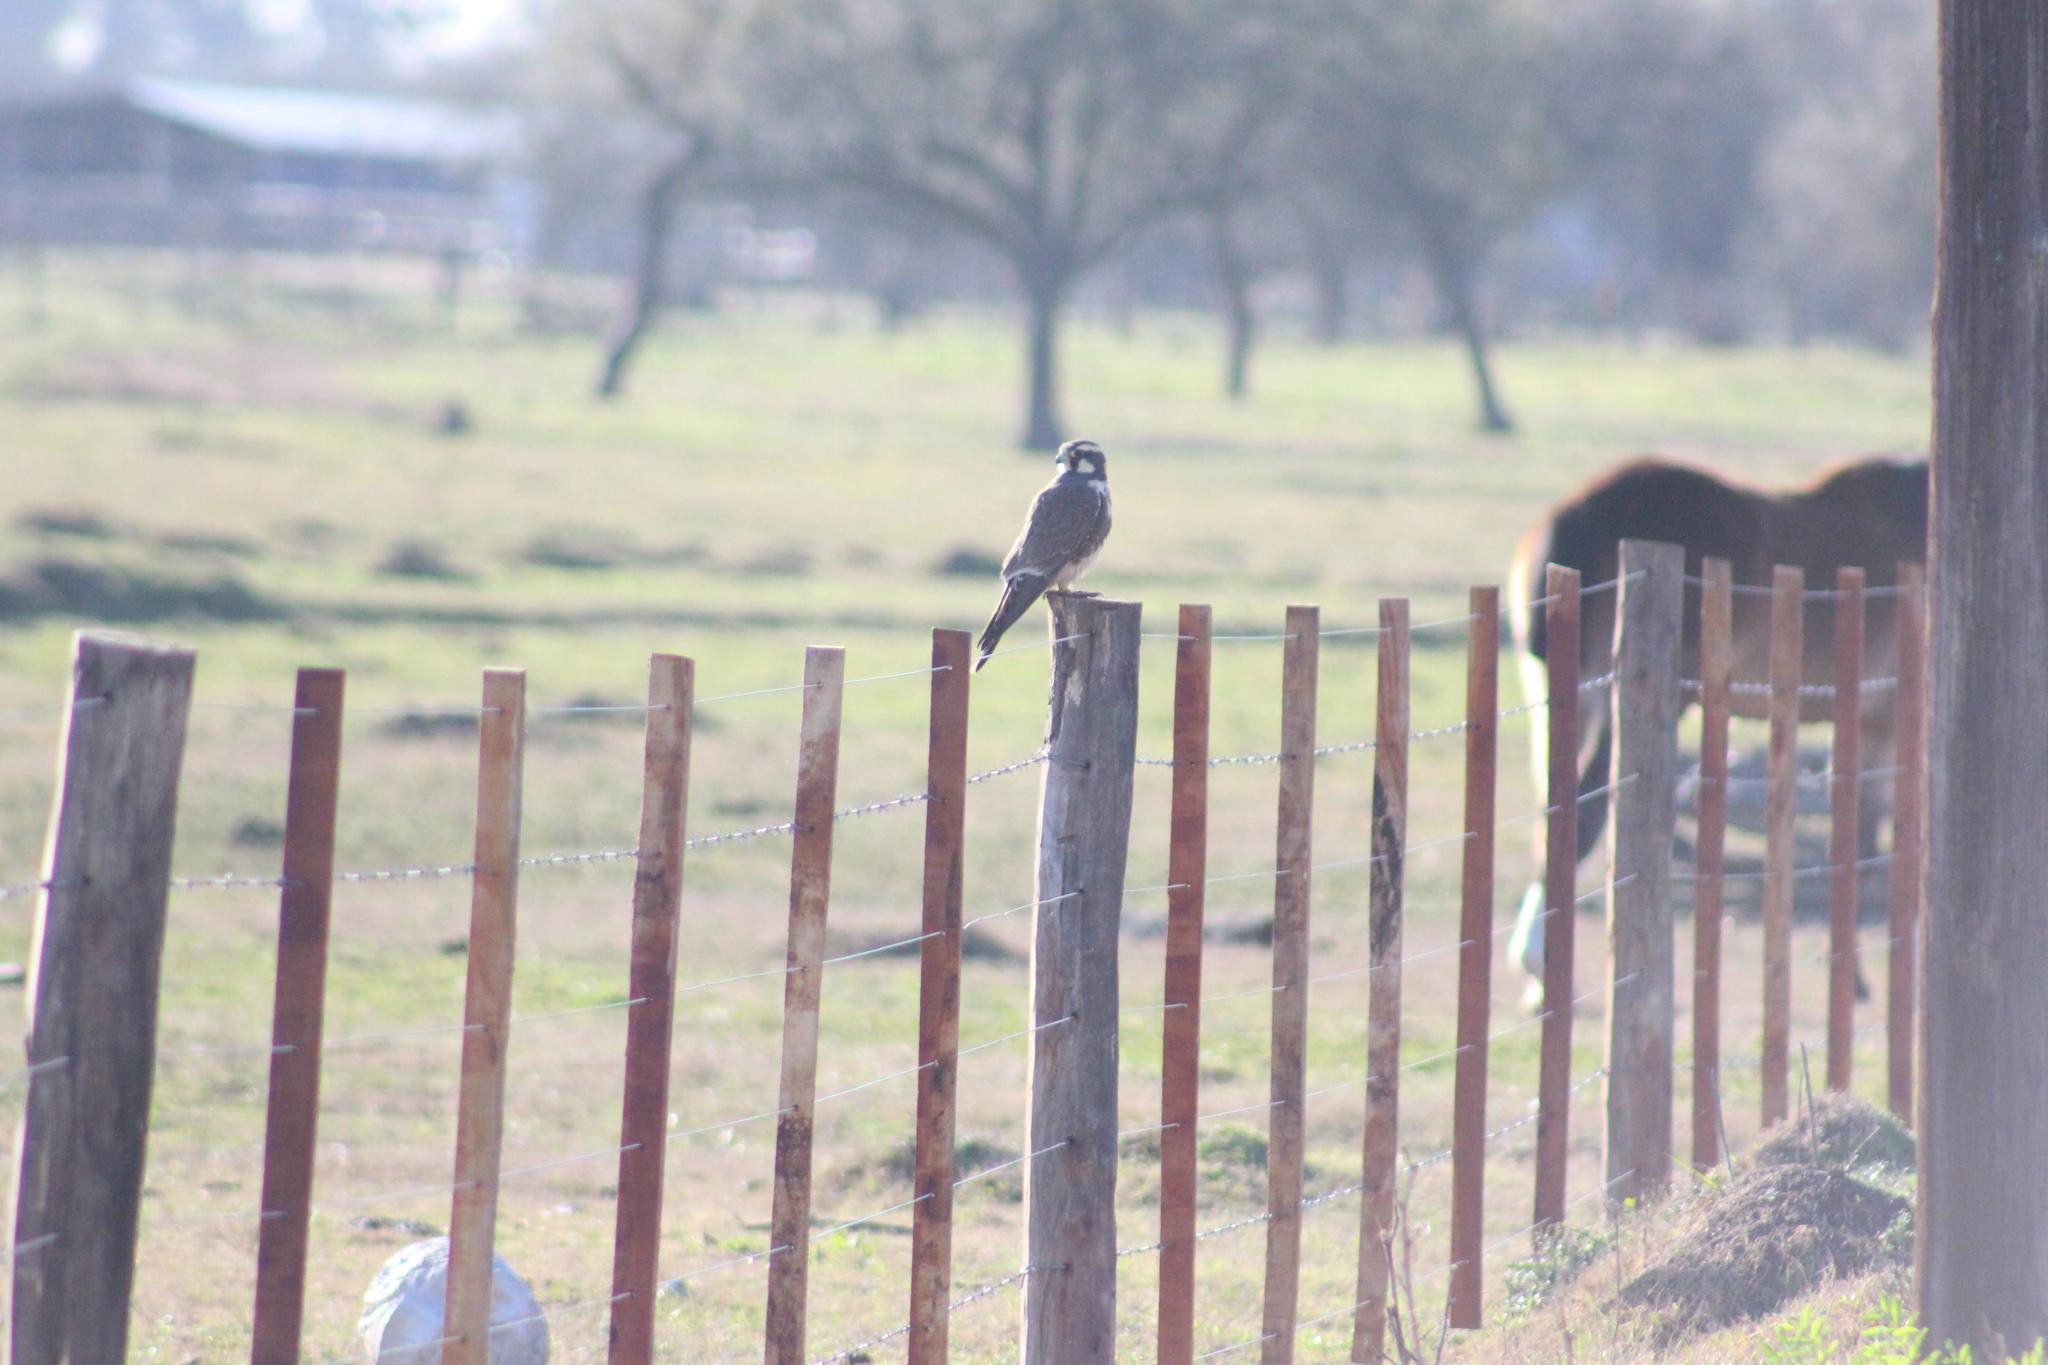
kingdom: Animalia
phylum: Chordata
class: Aves
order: Falconiformes
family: Falconidae
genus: Falco
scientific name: Falco femoralis
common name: Aplomado falcon
